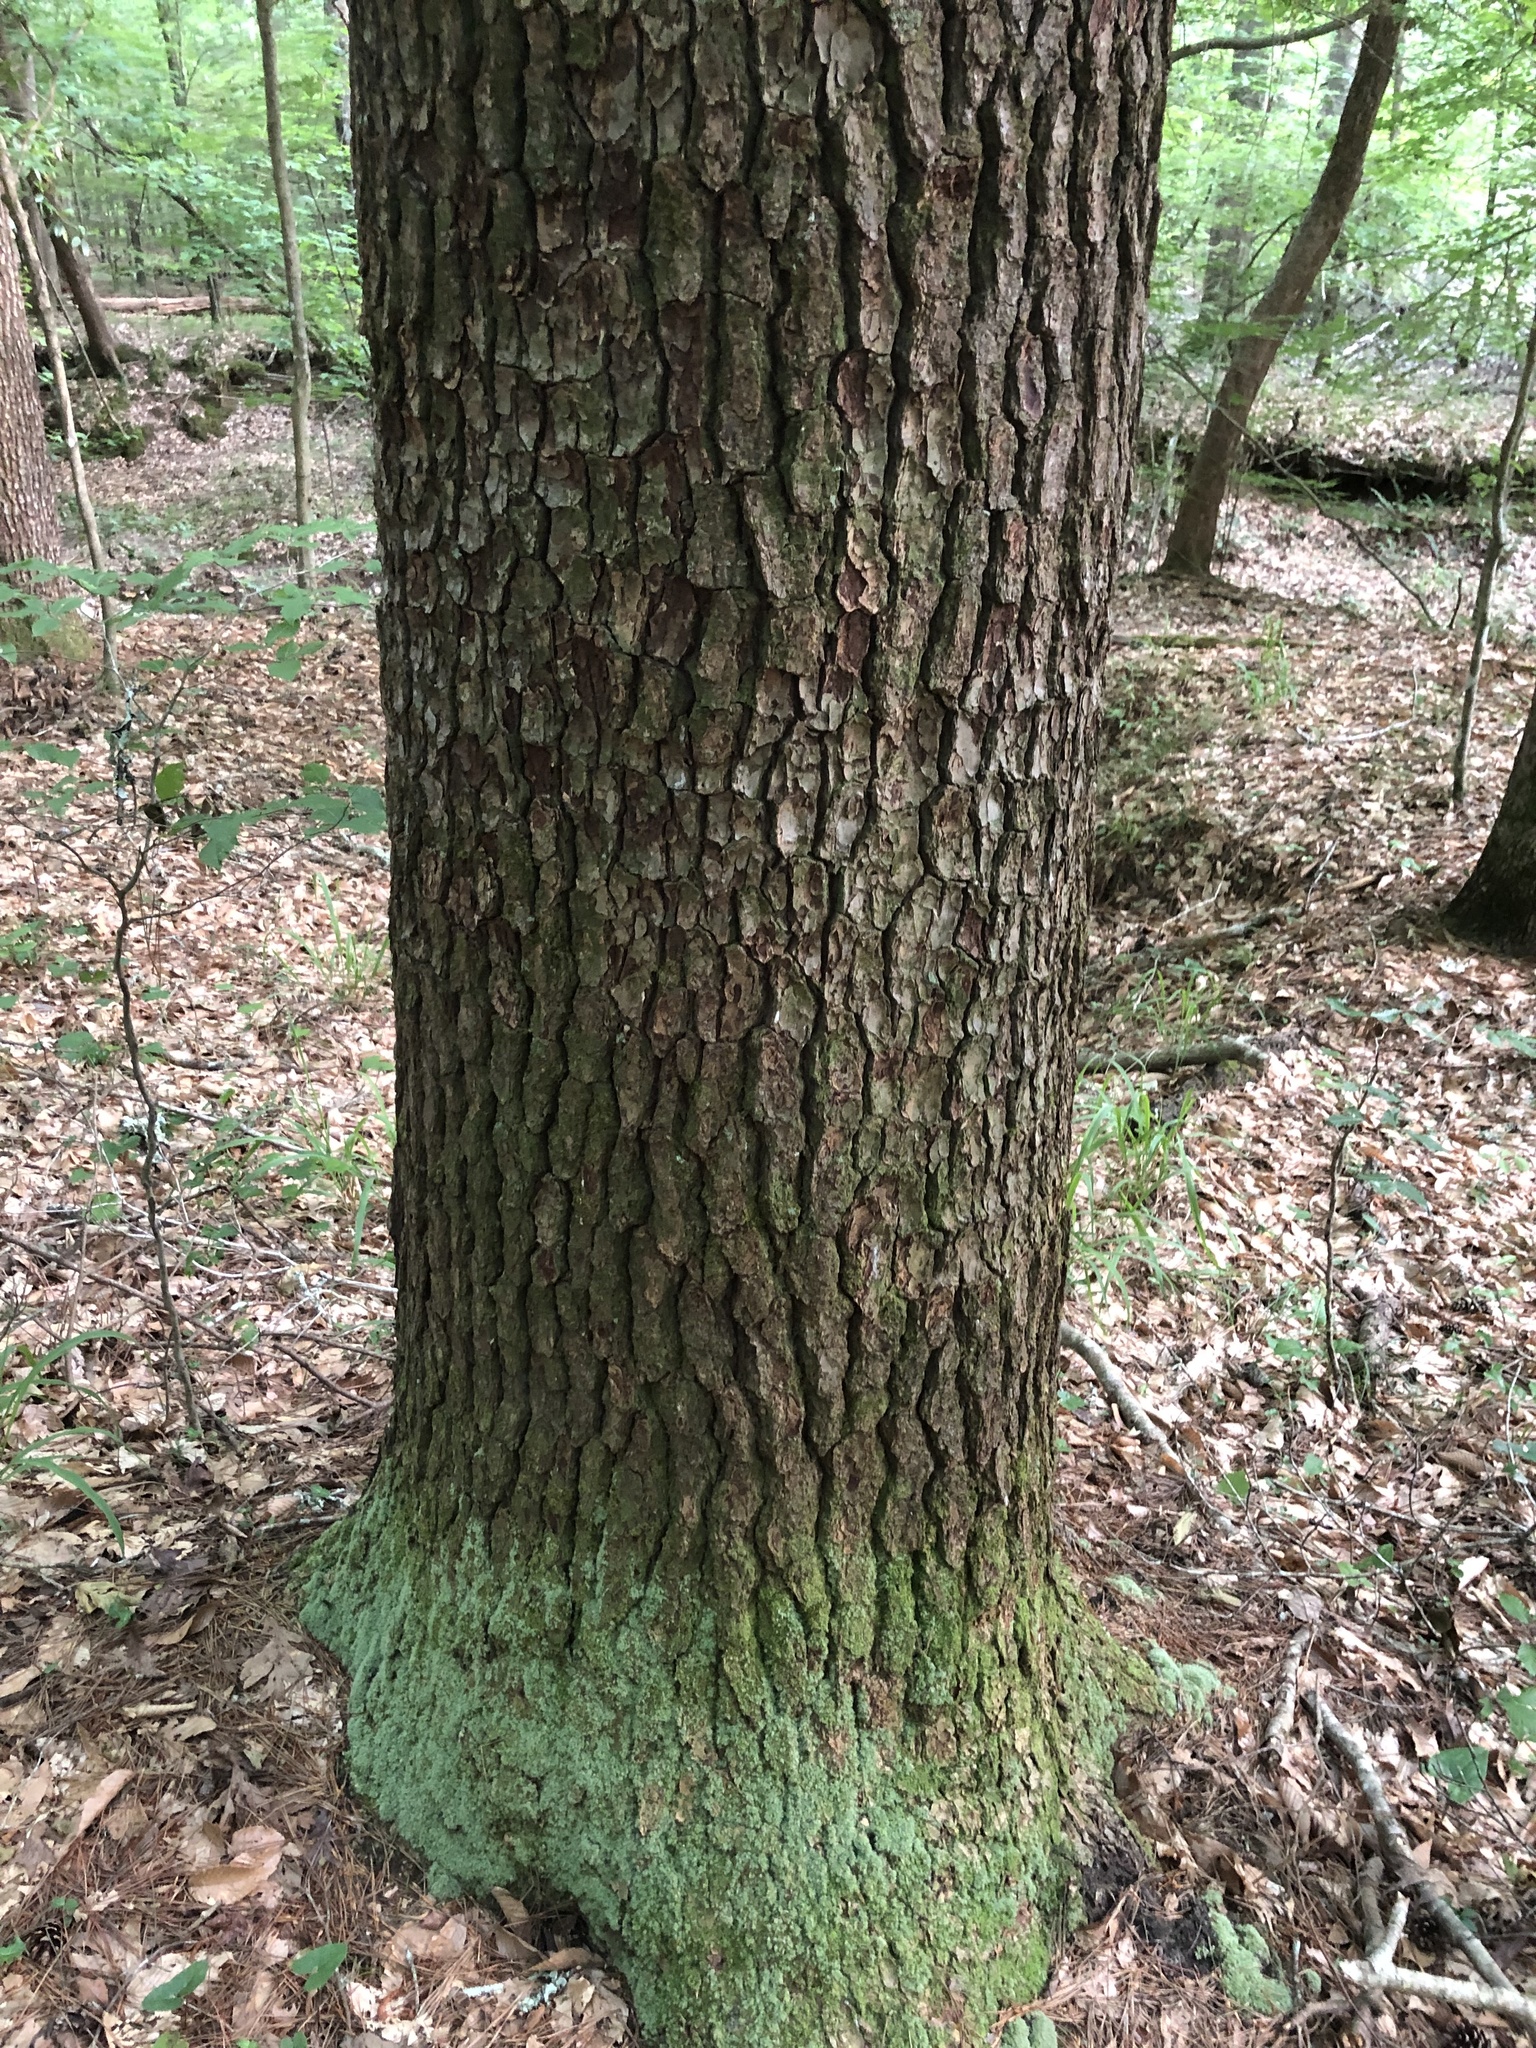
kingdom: Plantae
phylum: Tracheophyta
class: Pinopsida
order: Pinales
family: Pinaceae
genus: Pinus
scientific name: Pinus glabra
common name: Spruce pine
